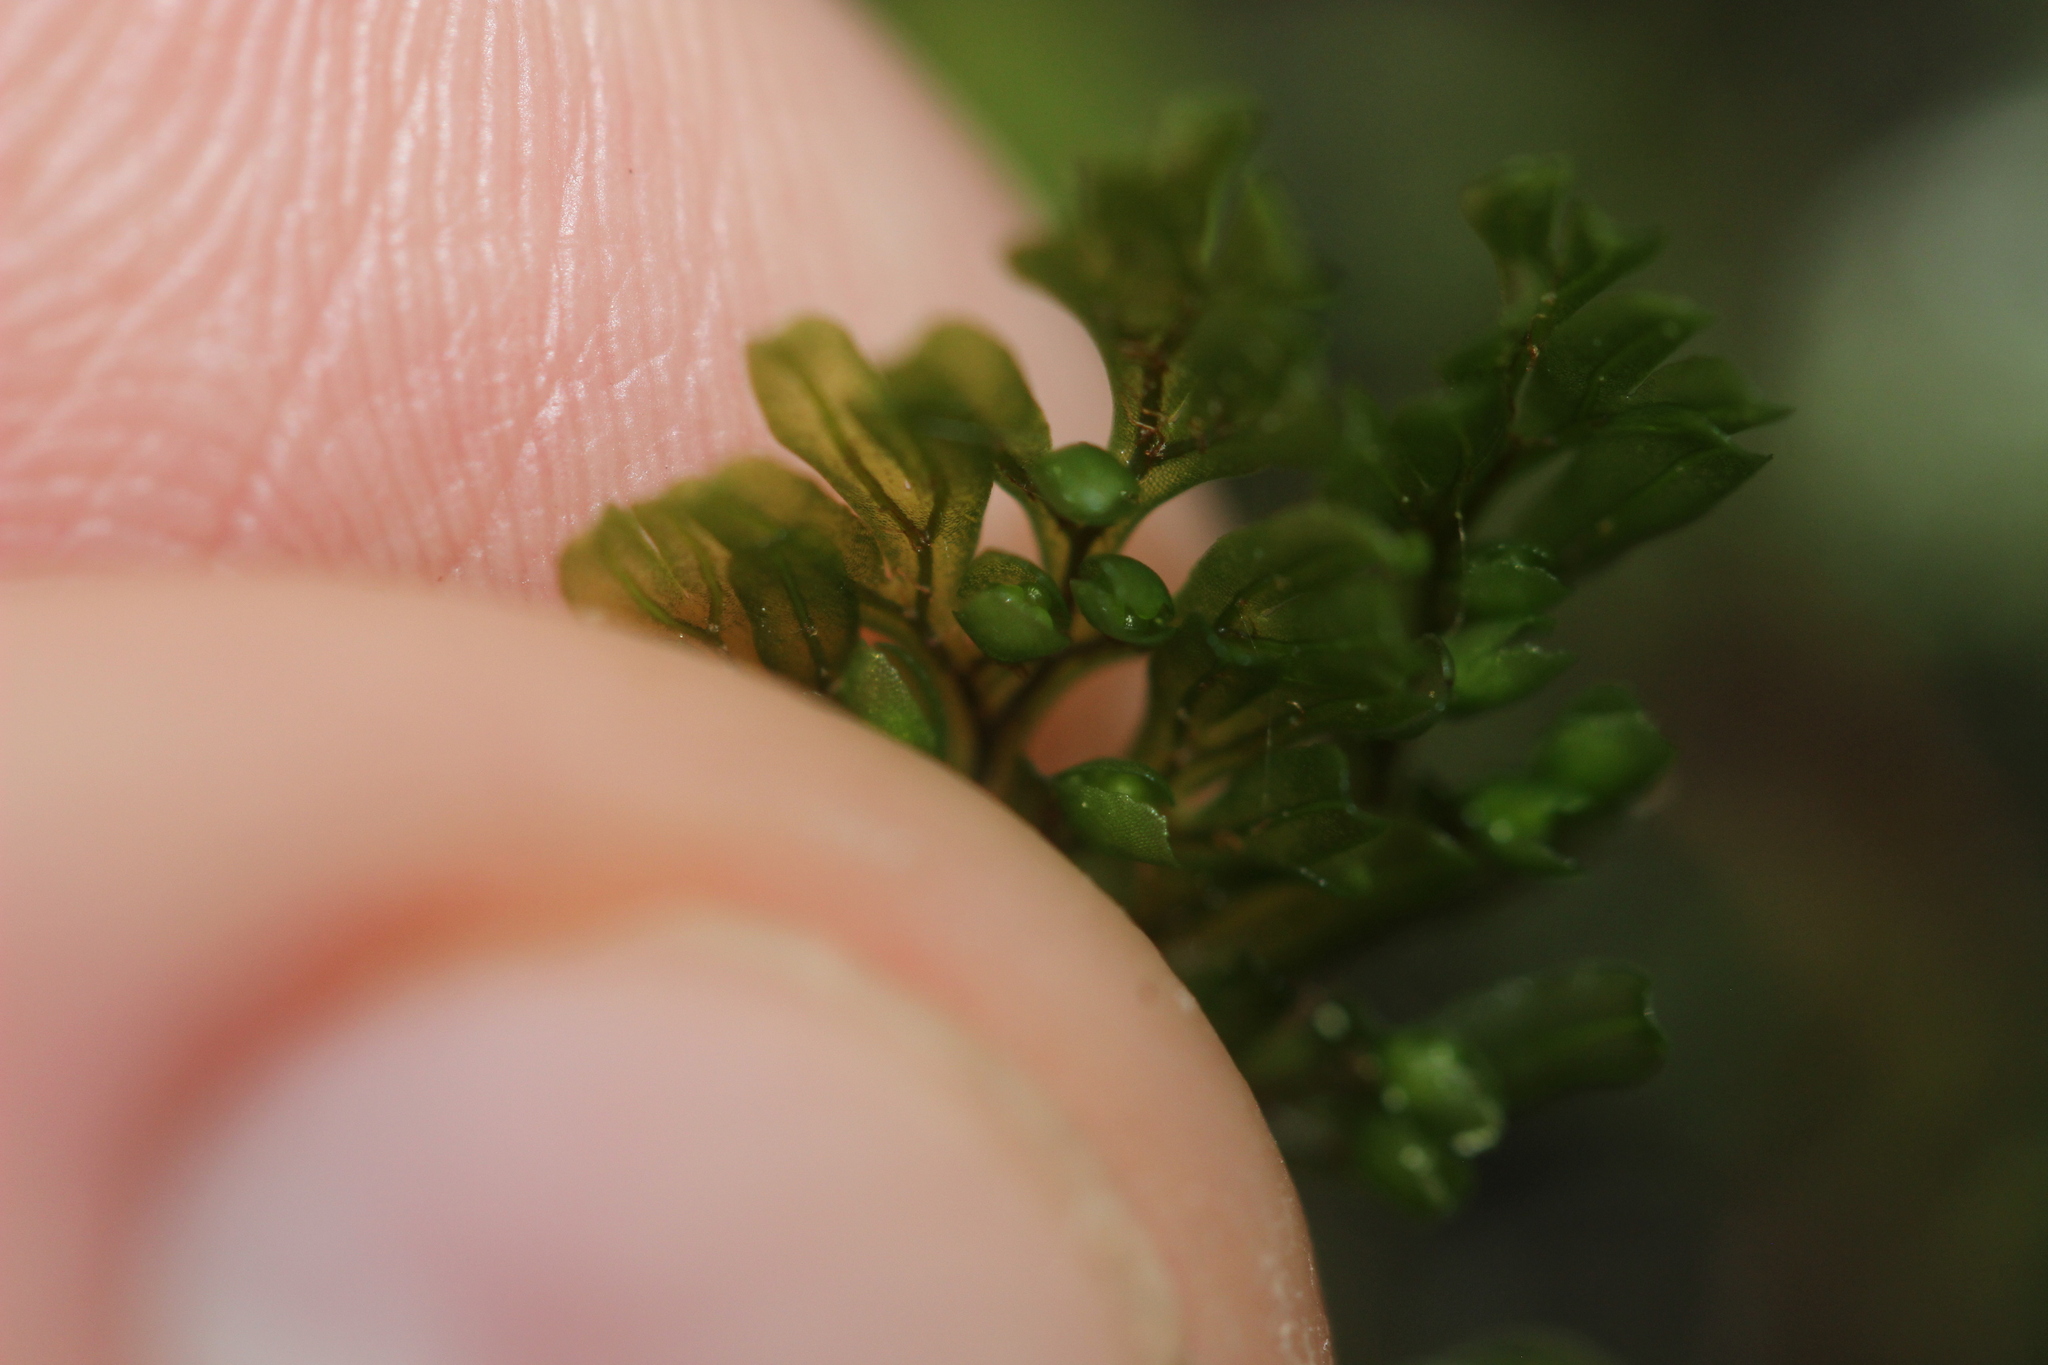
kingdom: Plantae
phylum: Tracheophyta
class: Polypodiopsida
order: Hymenophyllales
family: Hymenophyllaceae
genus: Hymenophyllum
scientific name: Hymenophyllum villosum
